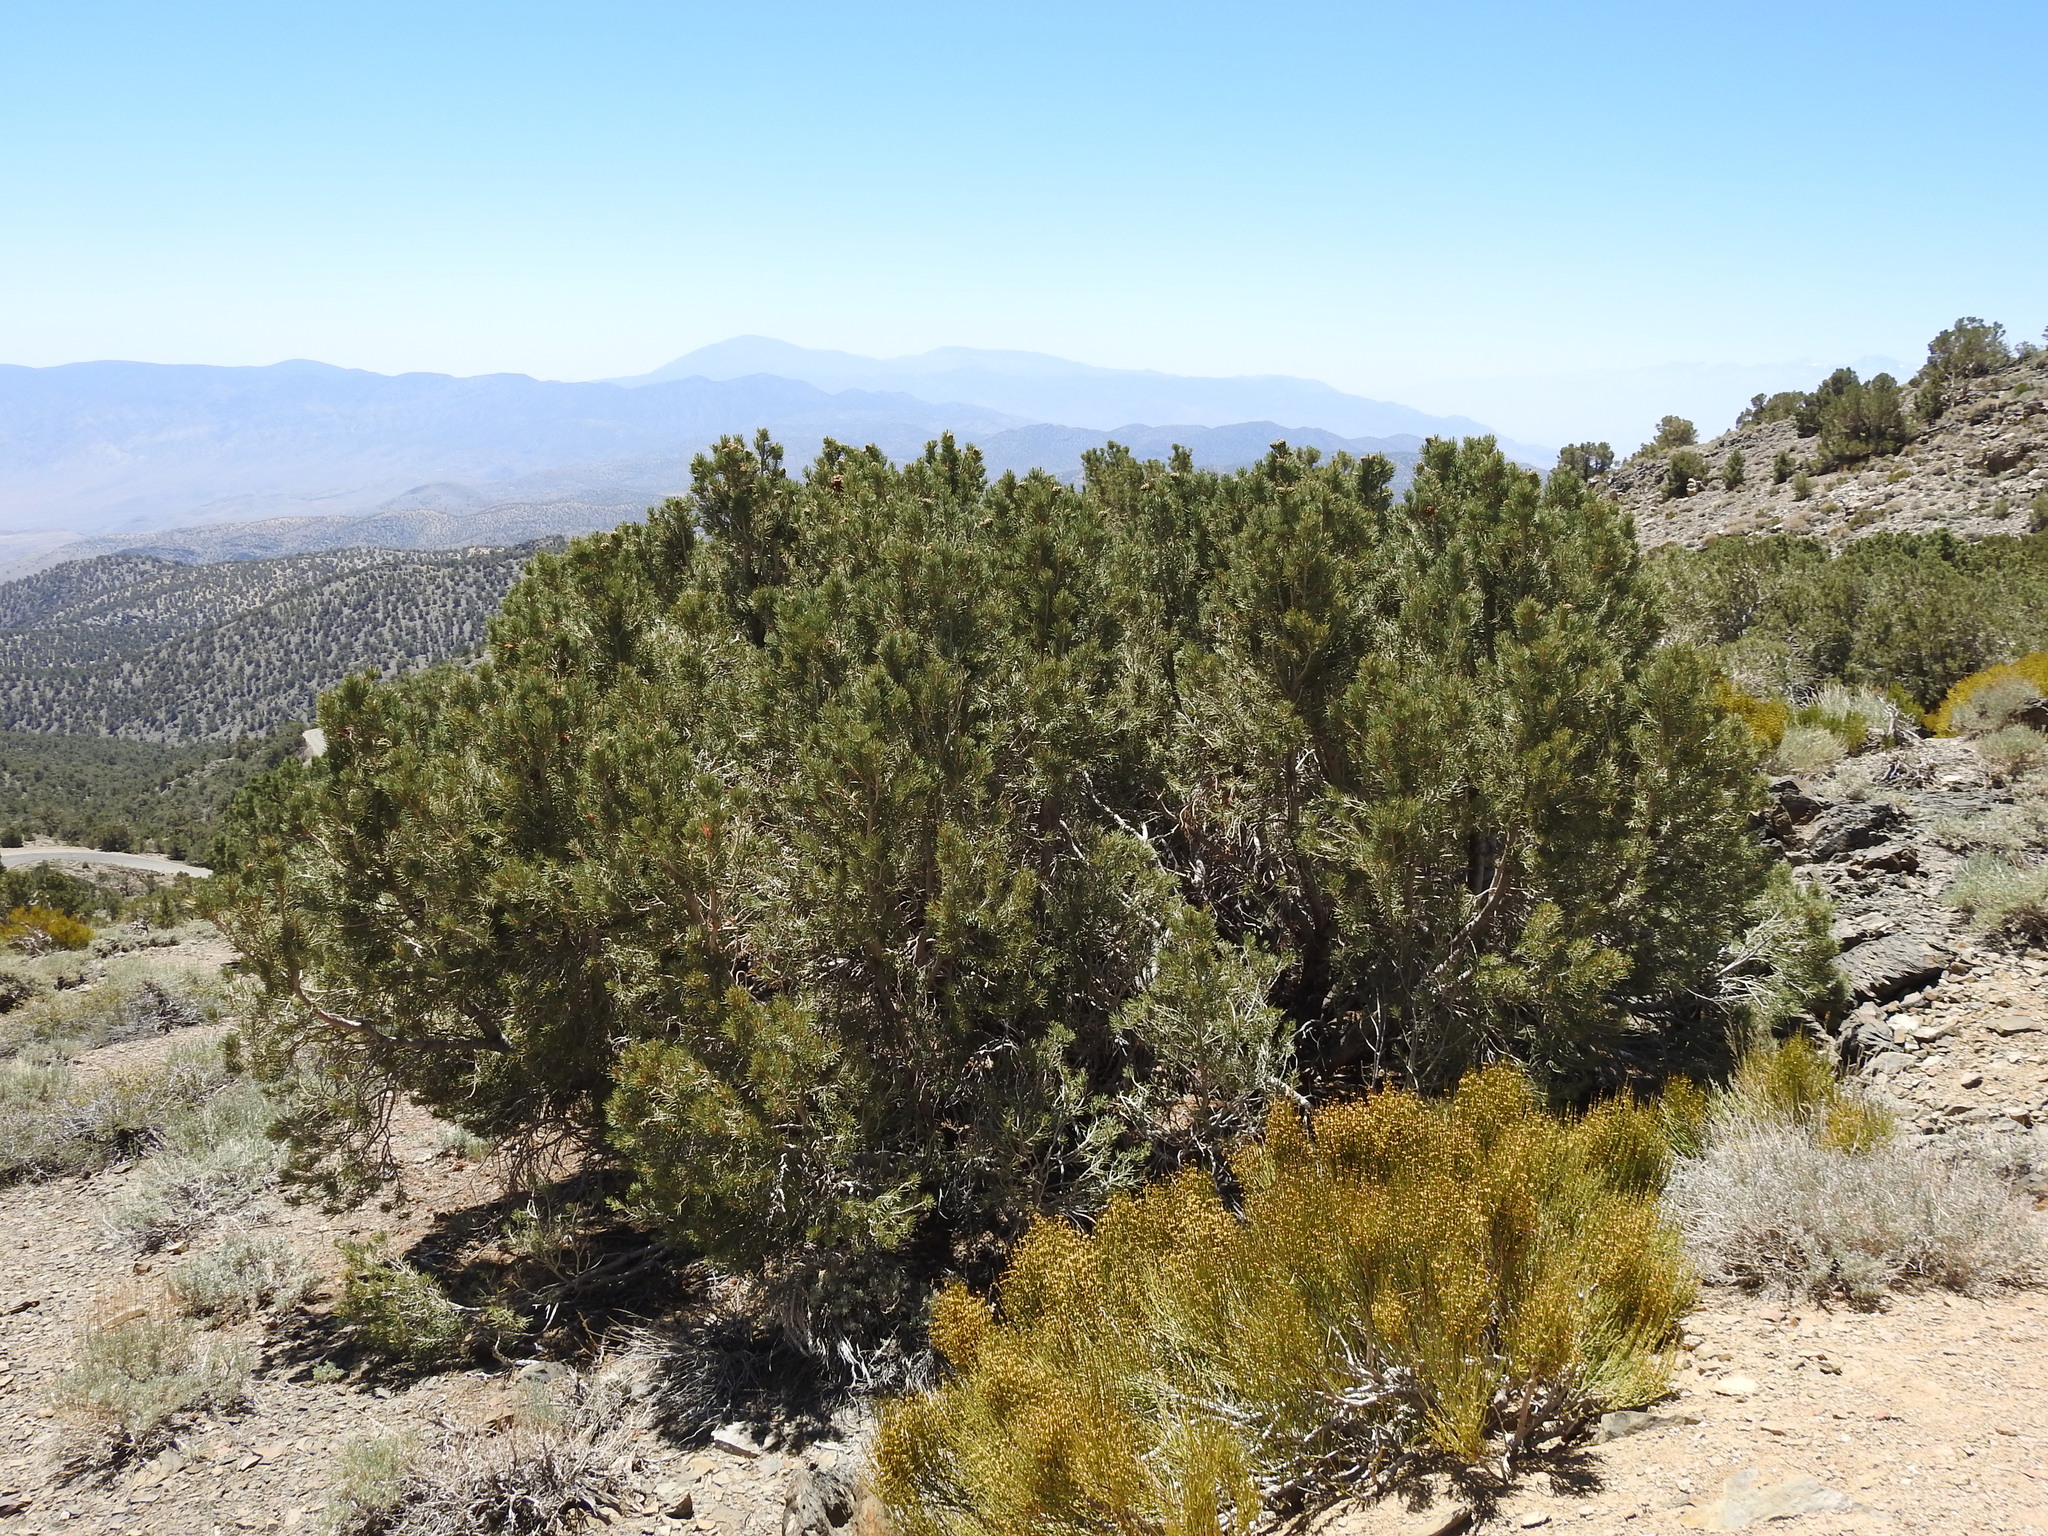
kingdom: Plantae
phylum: Tracheophyta
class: Pinopsida
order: Pinales
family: Pinaceae
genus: Pinus
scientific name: Pinus monophylla
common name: One-leaved nut pine
